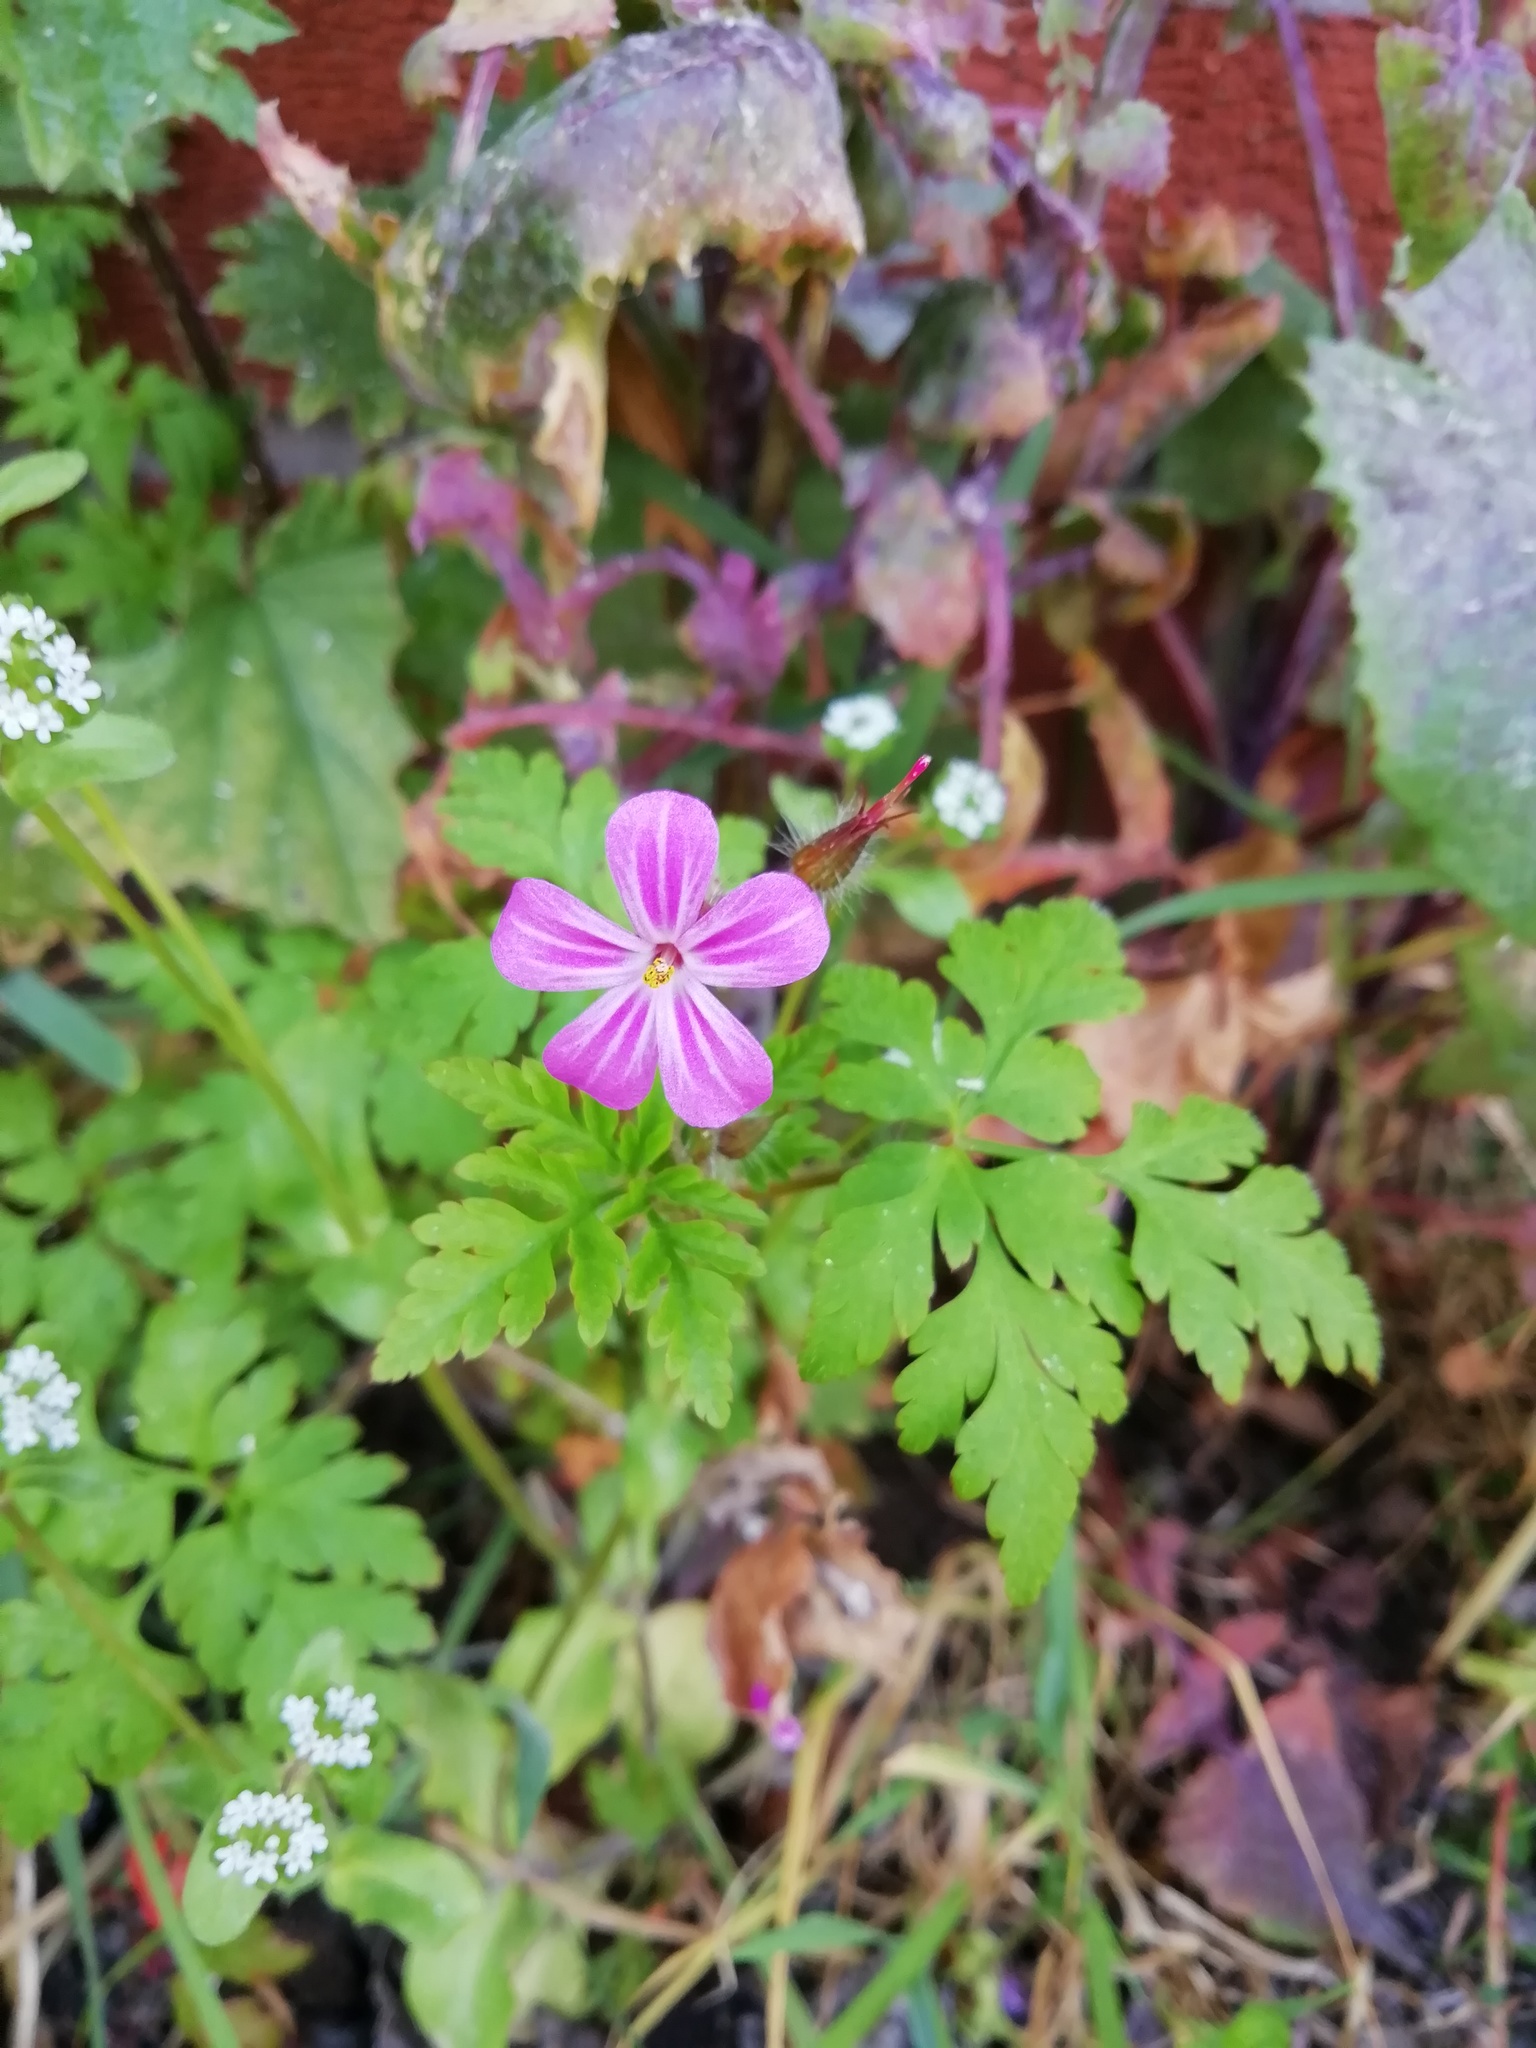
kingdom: Plantae
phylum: Tracheophyta
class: Magnoliopsida
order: Geraniales
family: Geraniaceae
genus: Geranium
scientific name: Geranium robertianum
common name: Herb-robert
